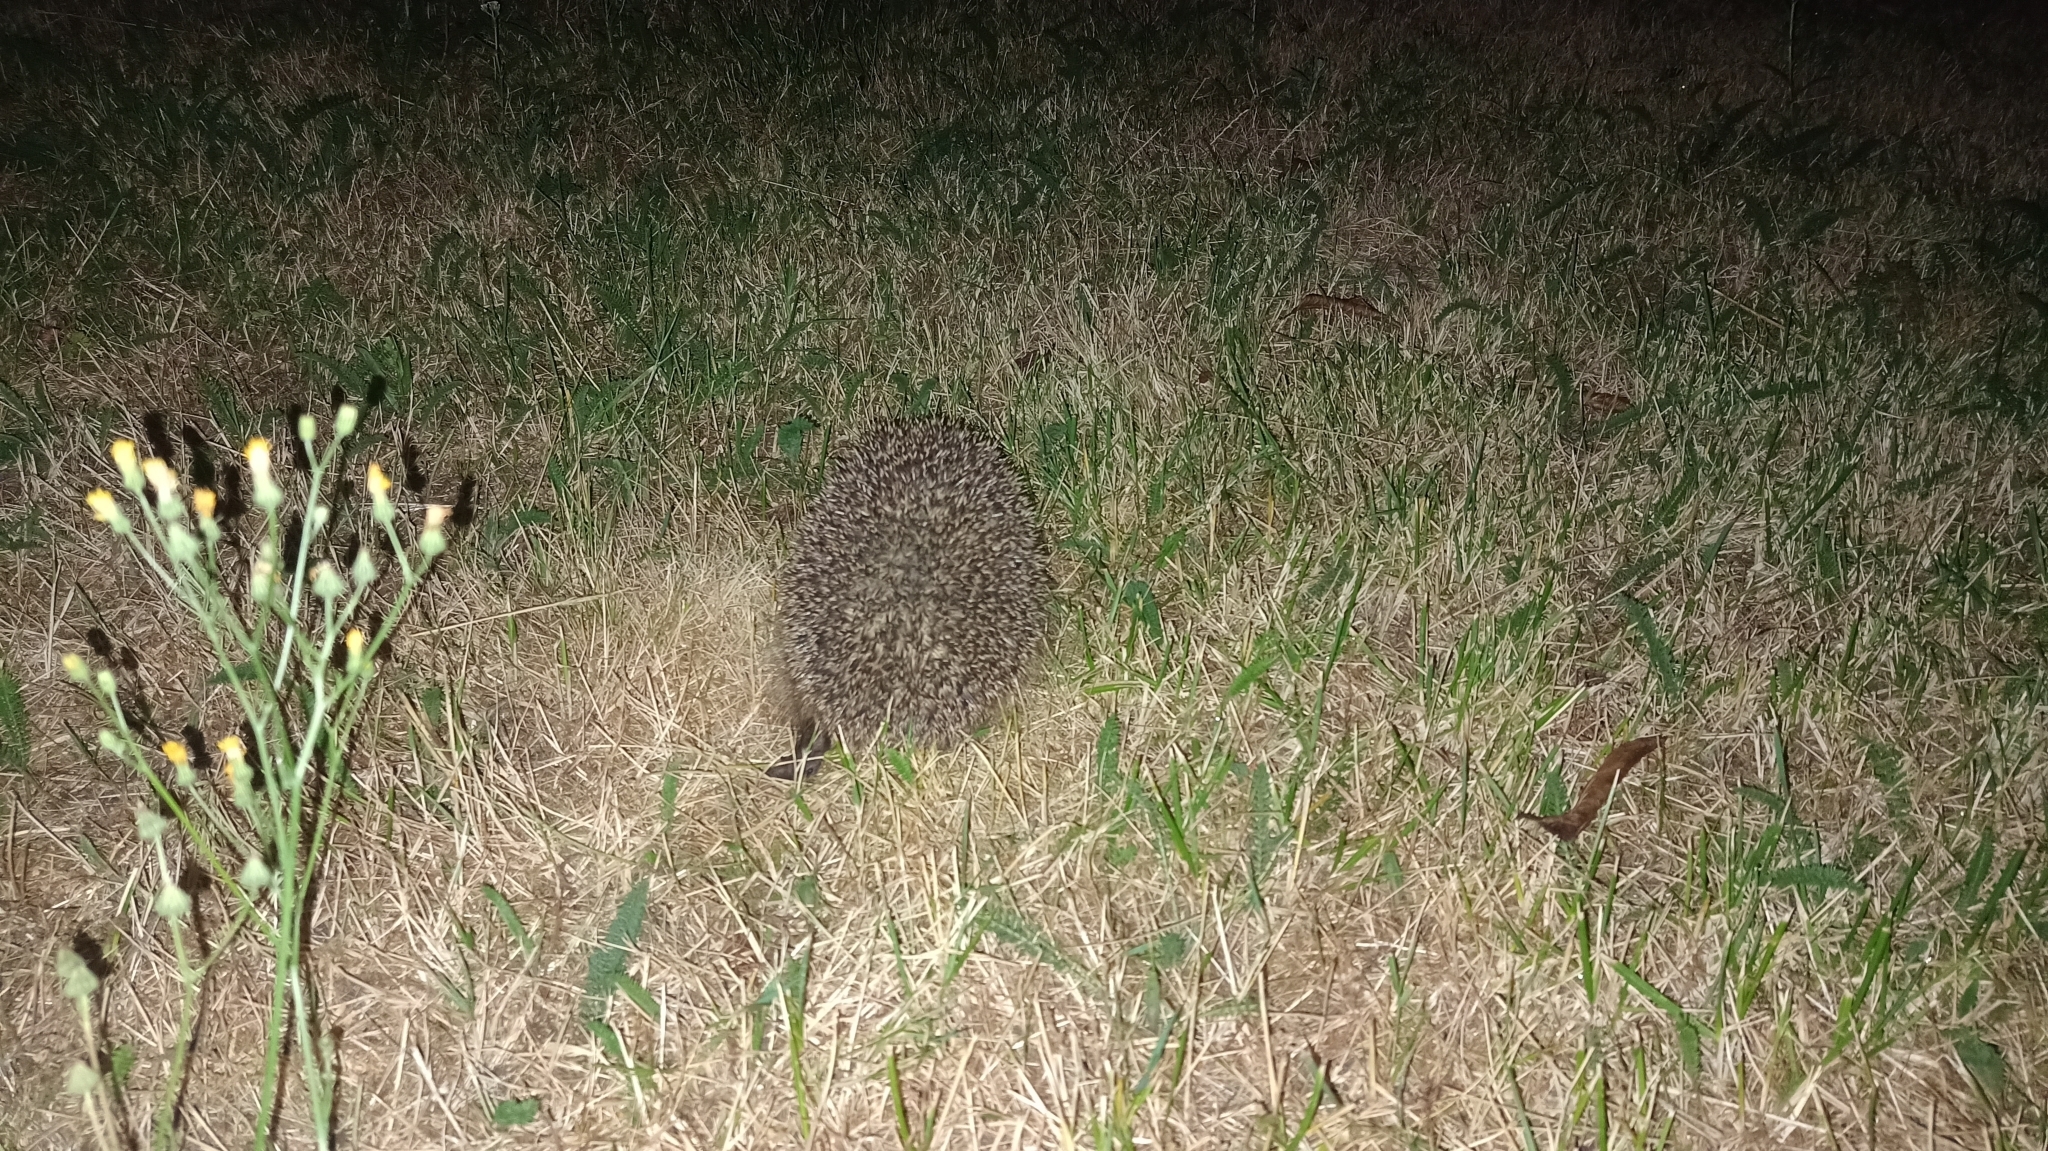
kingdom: Animalia
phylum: Chordata
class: Mammalia
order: Erinaceomorpha
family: Erinaceidae
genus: Erinaceus
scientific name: Erinaceus europaeus
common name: West european hedgehog
